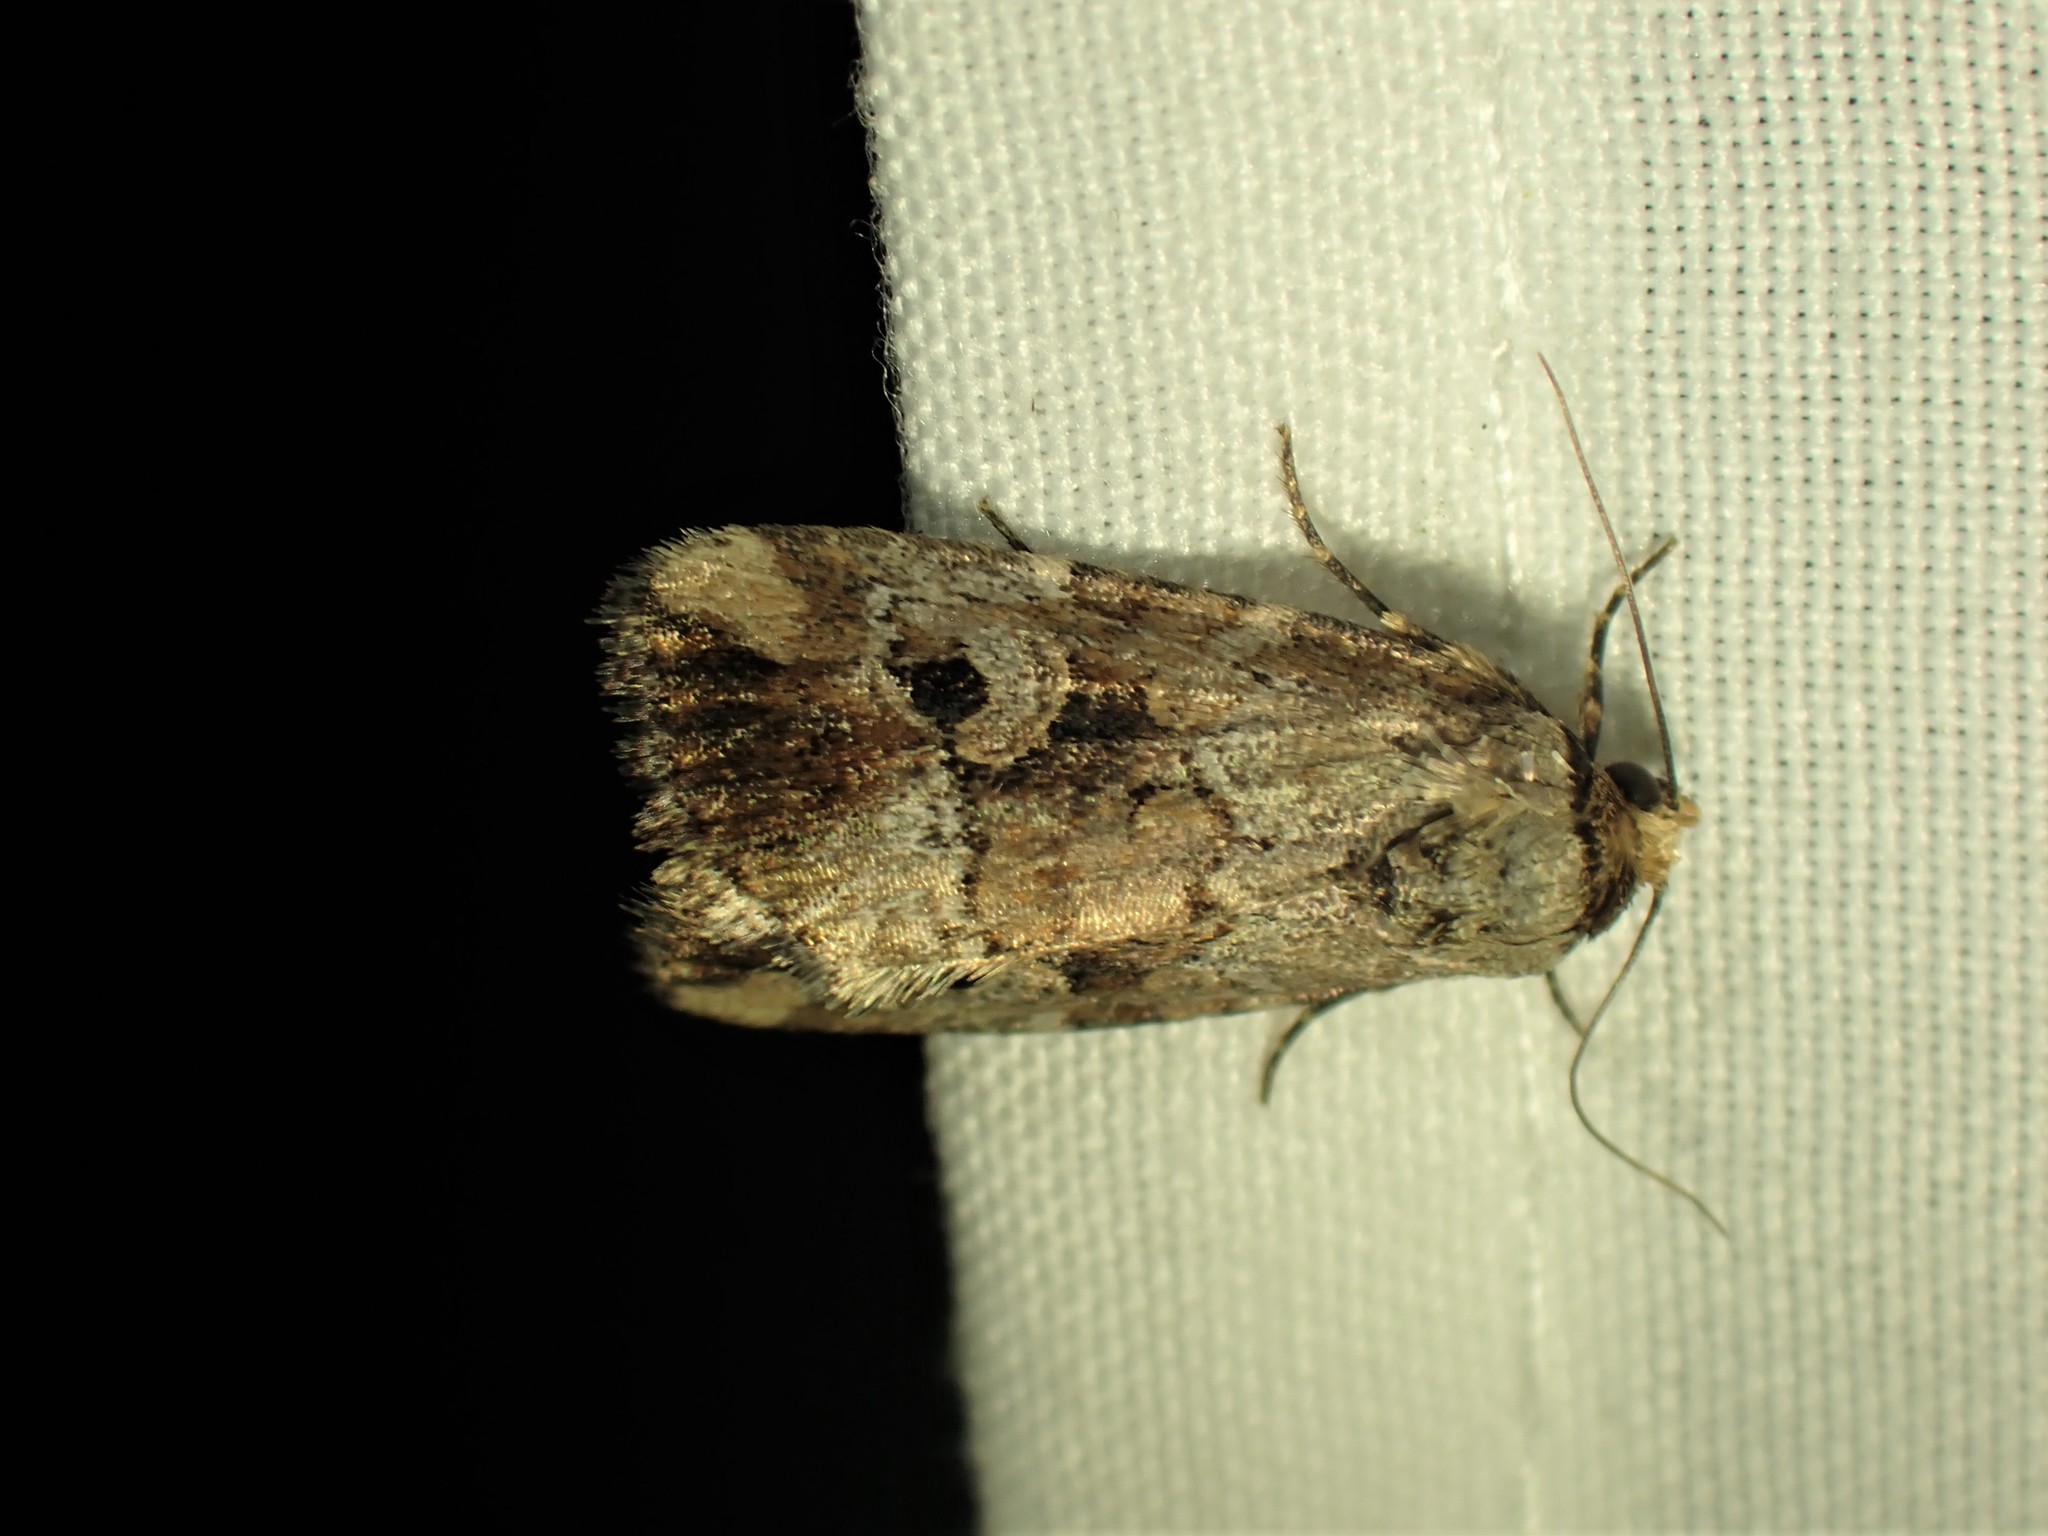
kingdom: Animalia
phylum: Arthropoda
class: Insecta
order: Lepidoptera
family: Noctuidae
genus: Elaphria
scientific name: Elaphria alapallida
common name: Pale-winged midget
